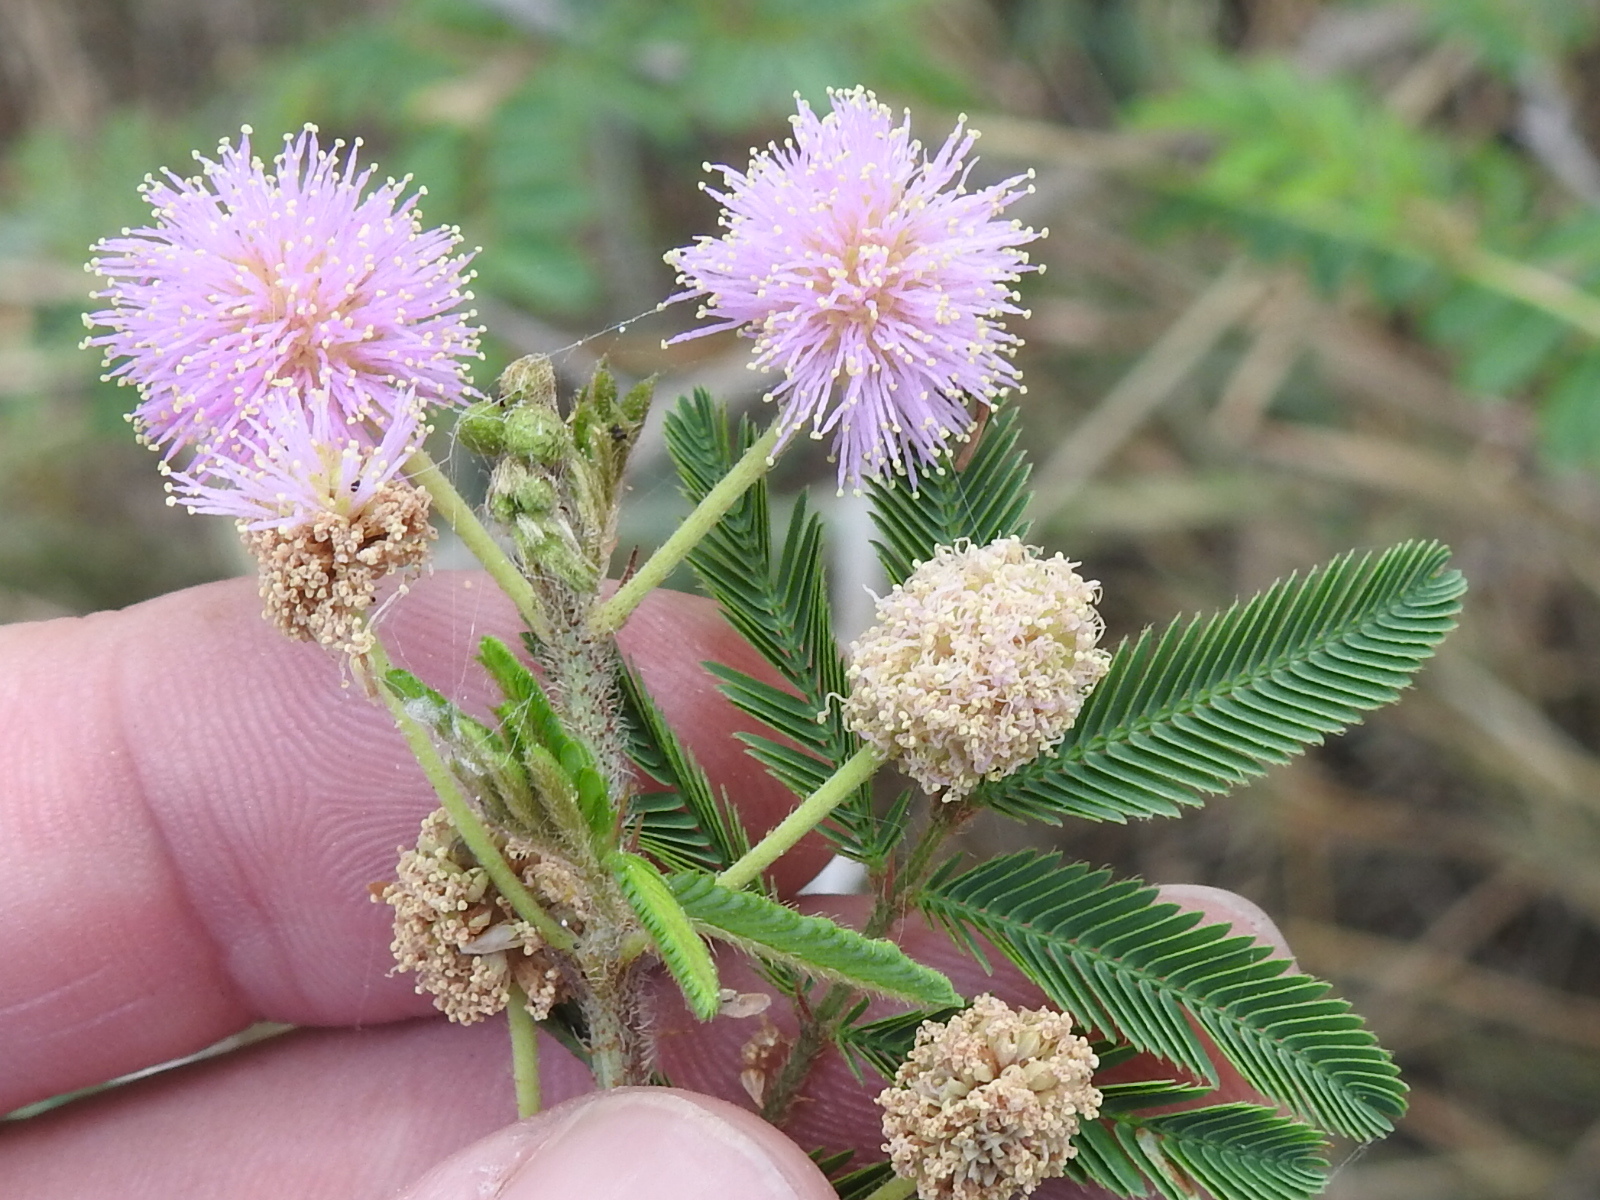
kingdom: Plantae
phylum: Tracheophyta
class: Magnoliopsida
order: Fabales
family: Fabaceae
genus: Mimosa
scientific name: Mimosa pigra
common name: Black mimosa
